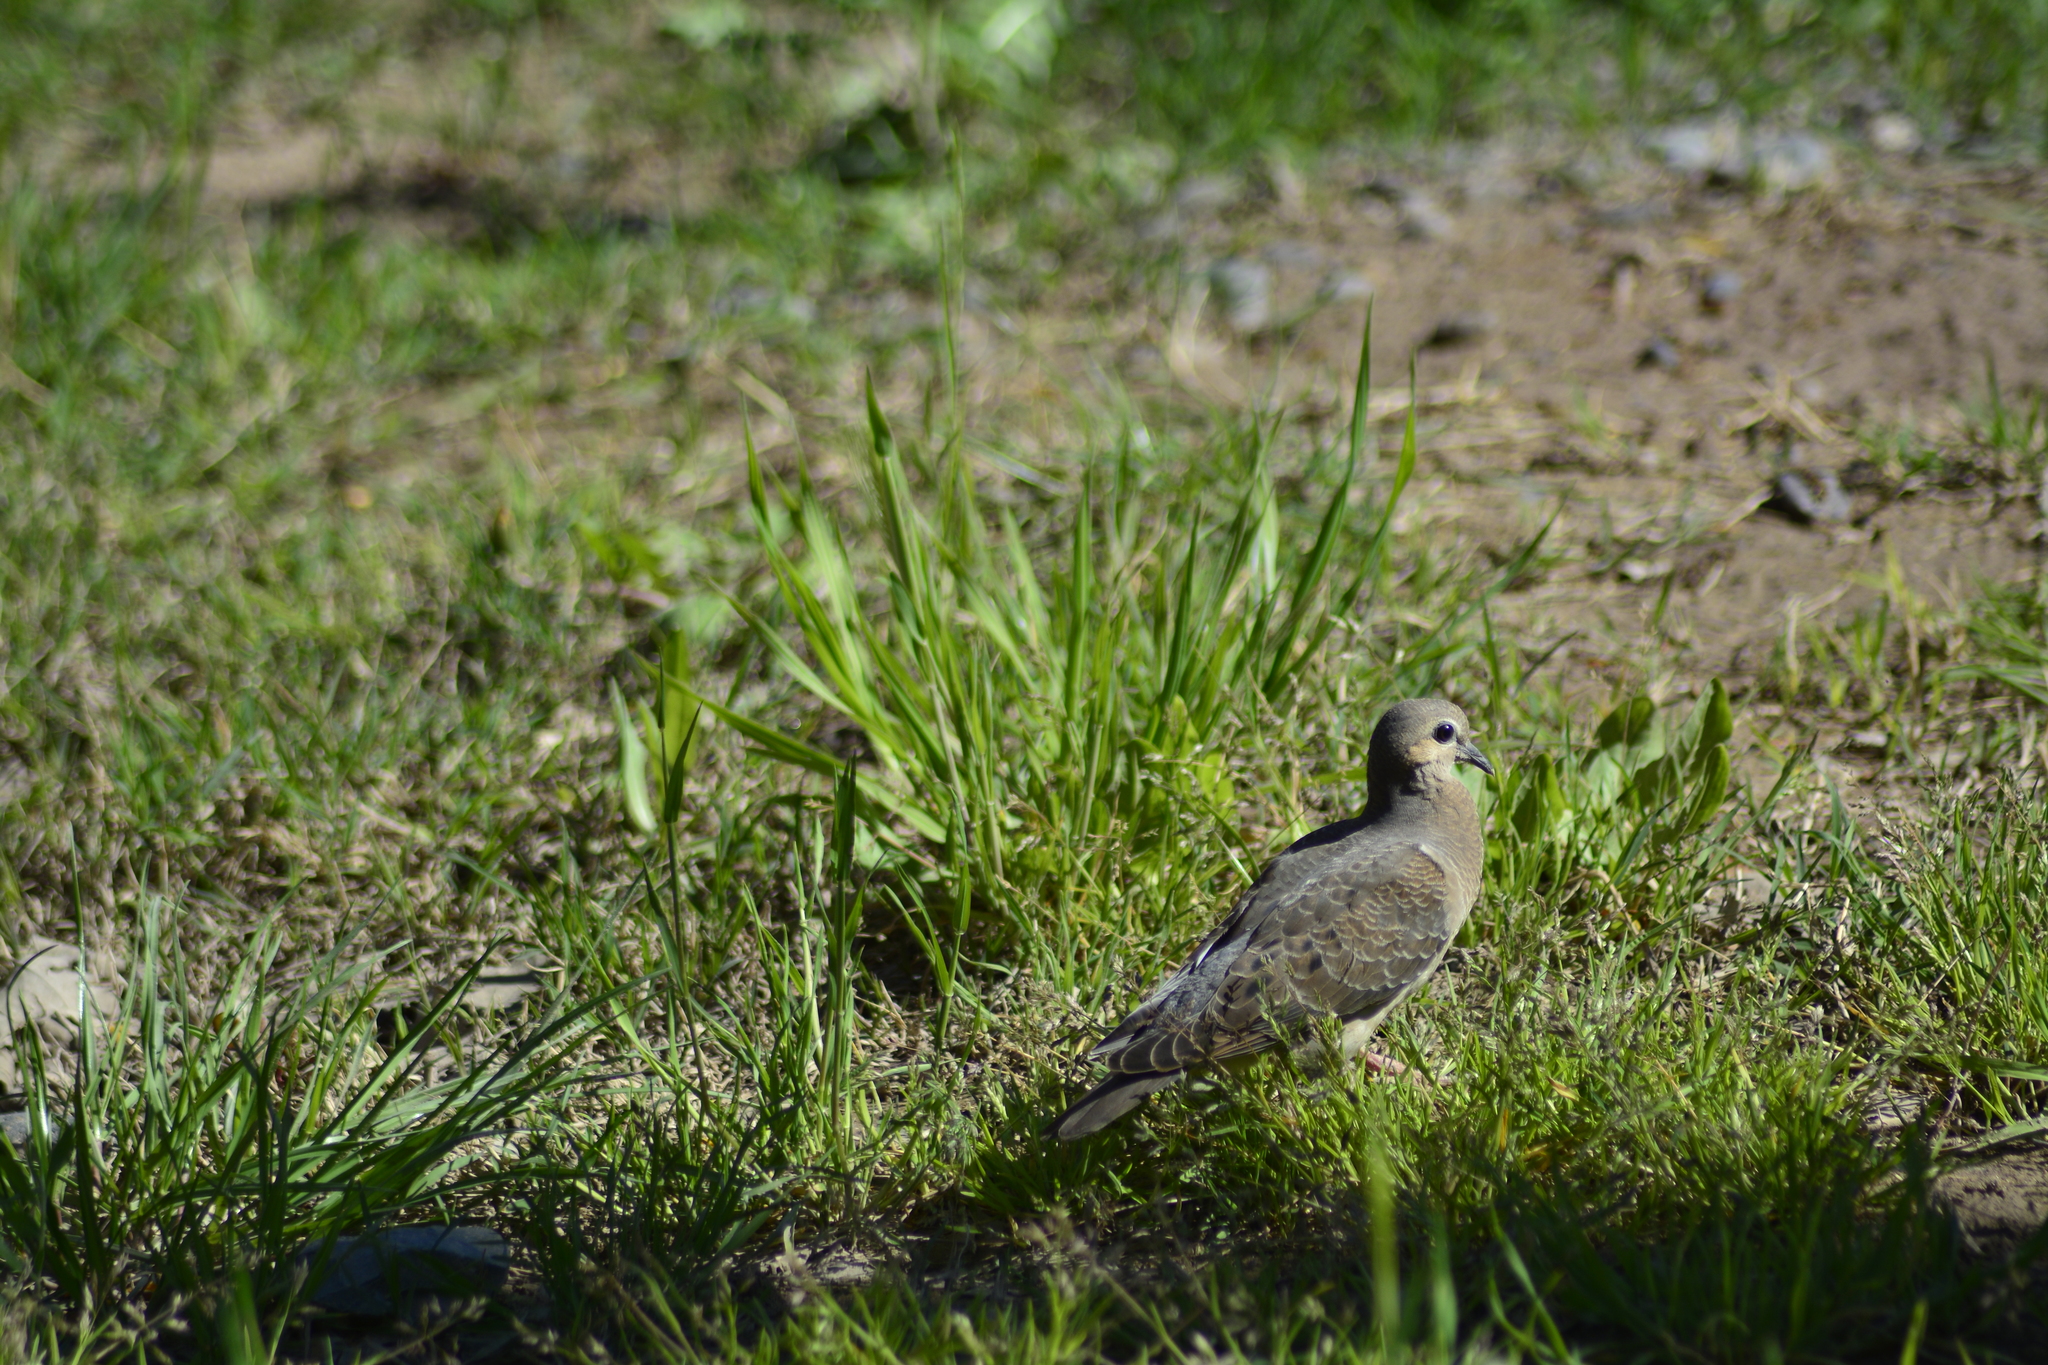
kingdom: Animalia
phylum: Chordata
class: Aves
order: Columbiformes
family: Columbidae
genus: Zenaida
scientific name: Zenaida auriculata
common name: Eared dove
